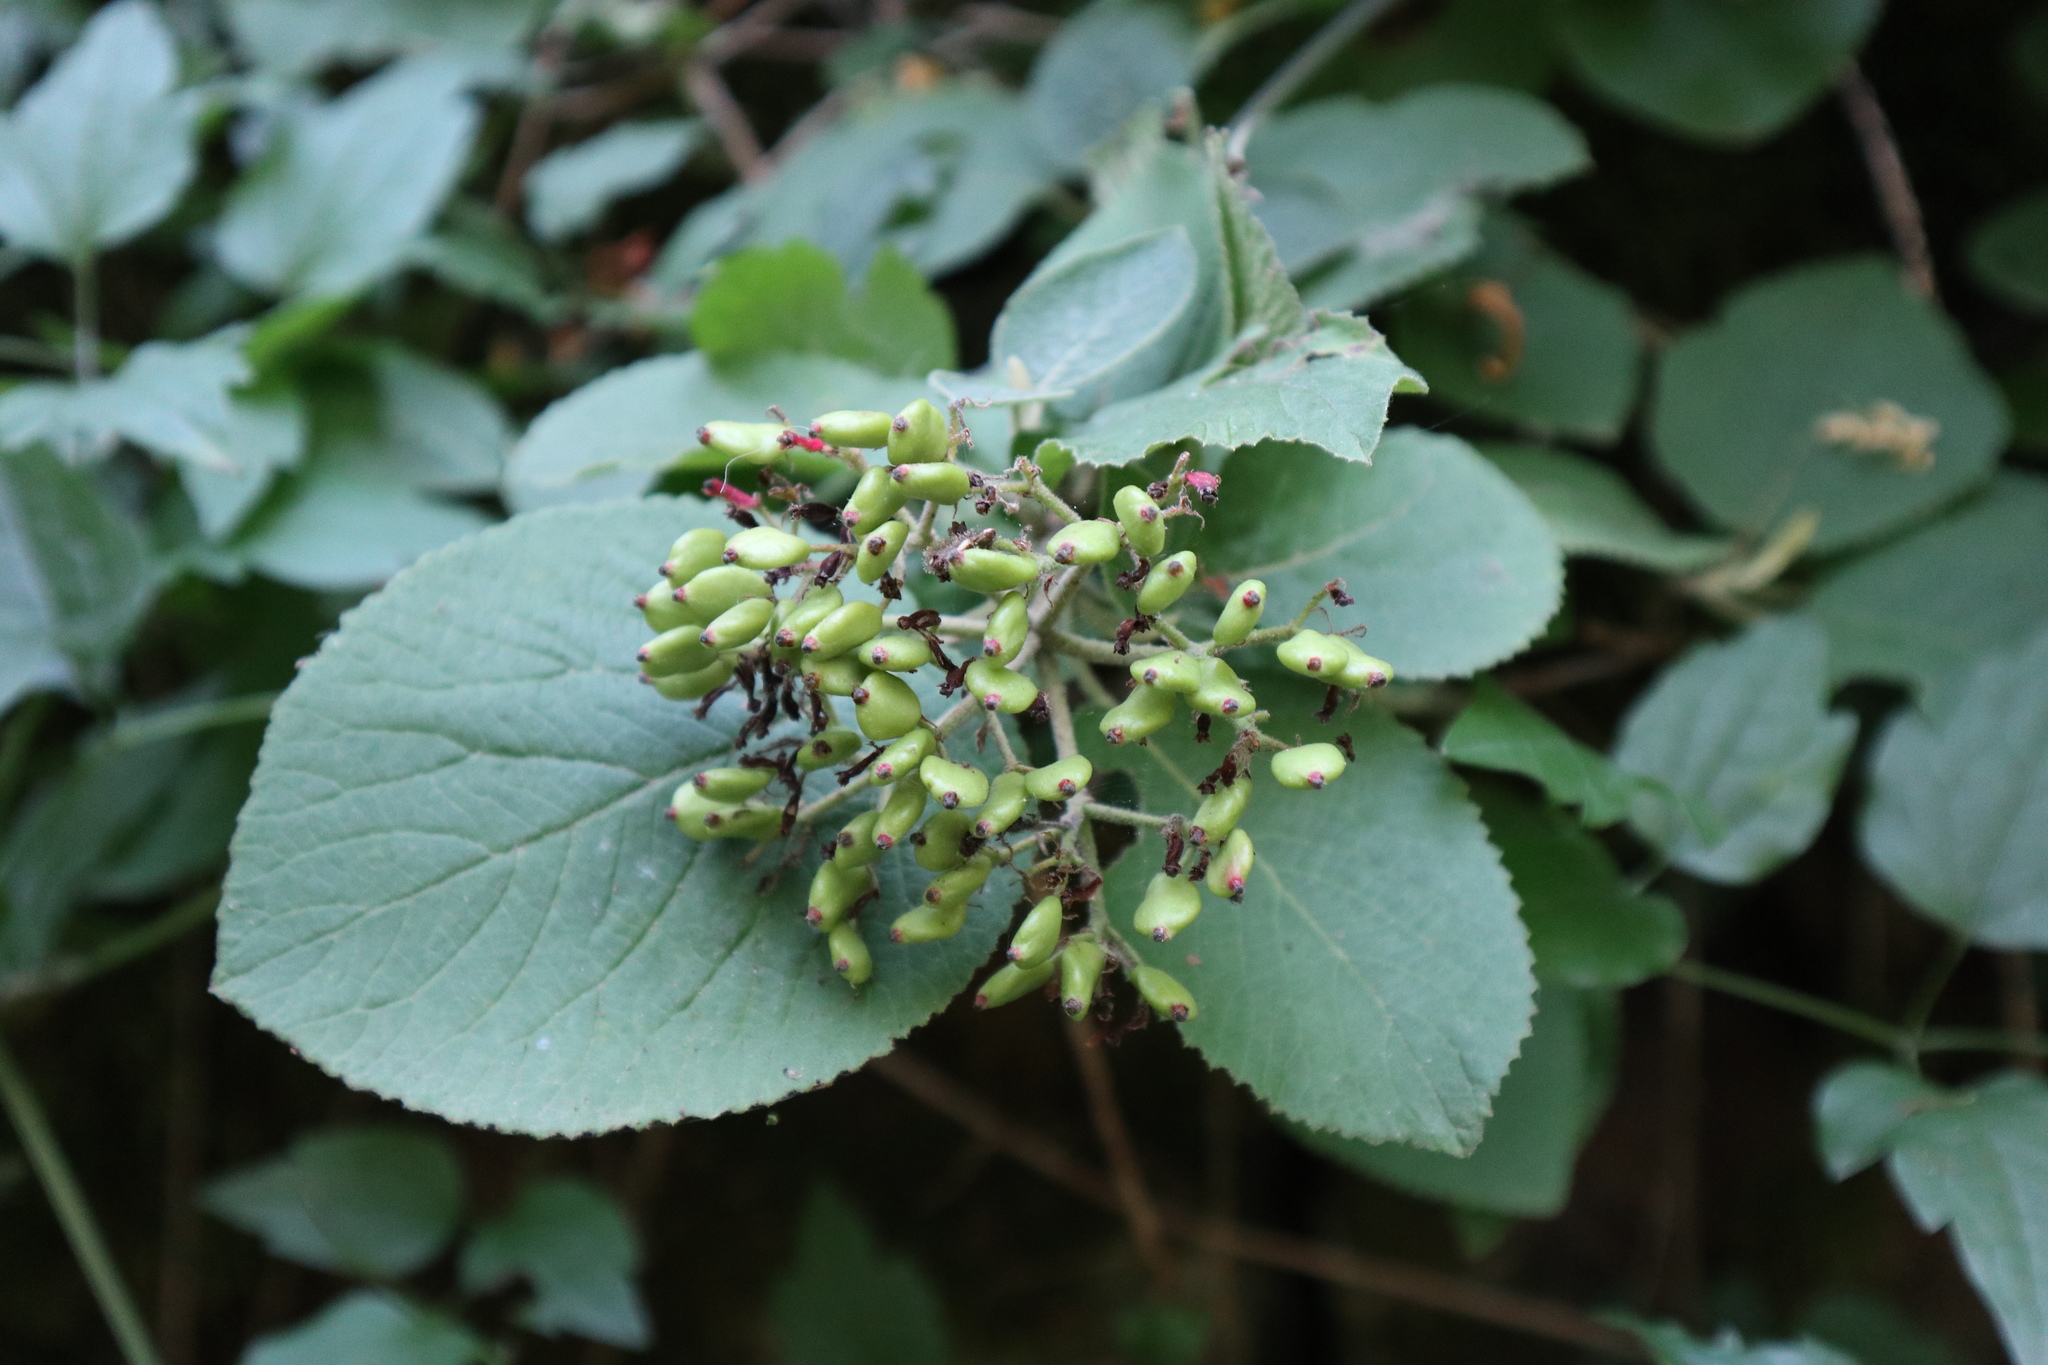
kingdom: Plantae
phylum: Tracheophyta
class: Magnoliopsida
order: Dipsacales
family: Viburnaceae
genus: Viburnum
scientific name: Viburnum lantana
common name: Wayfaring tree
